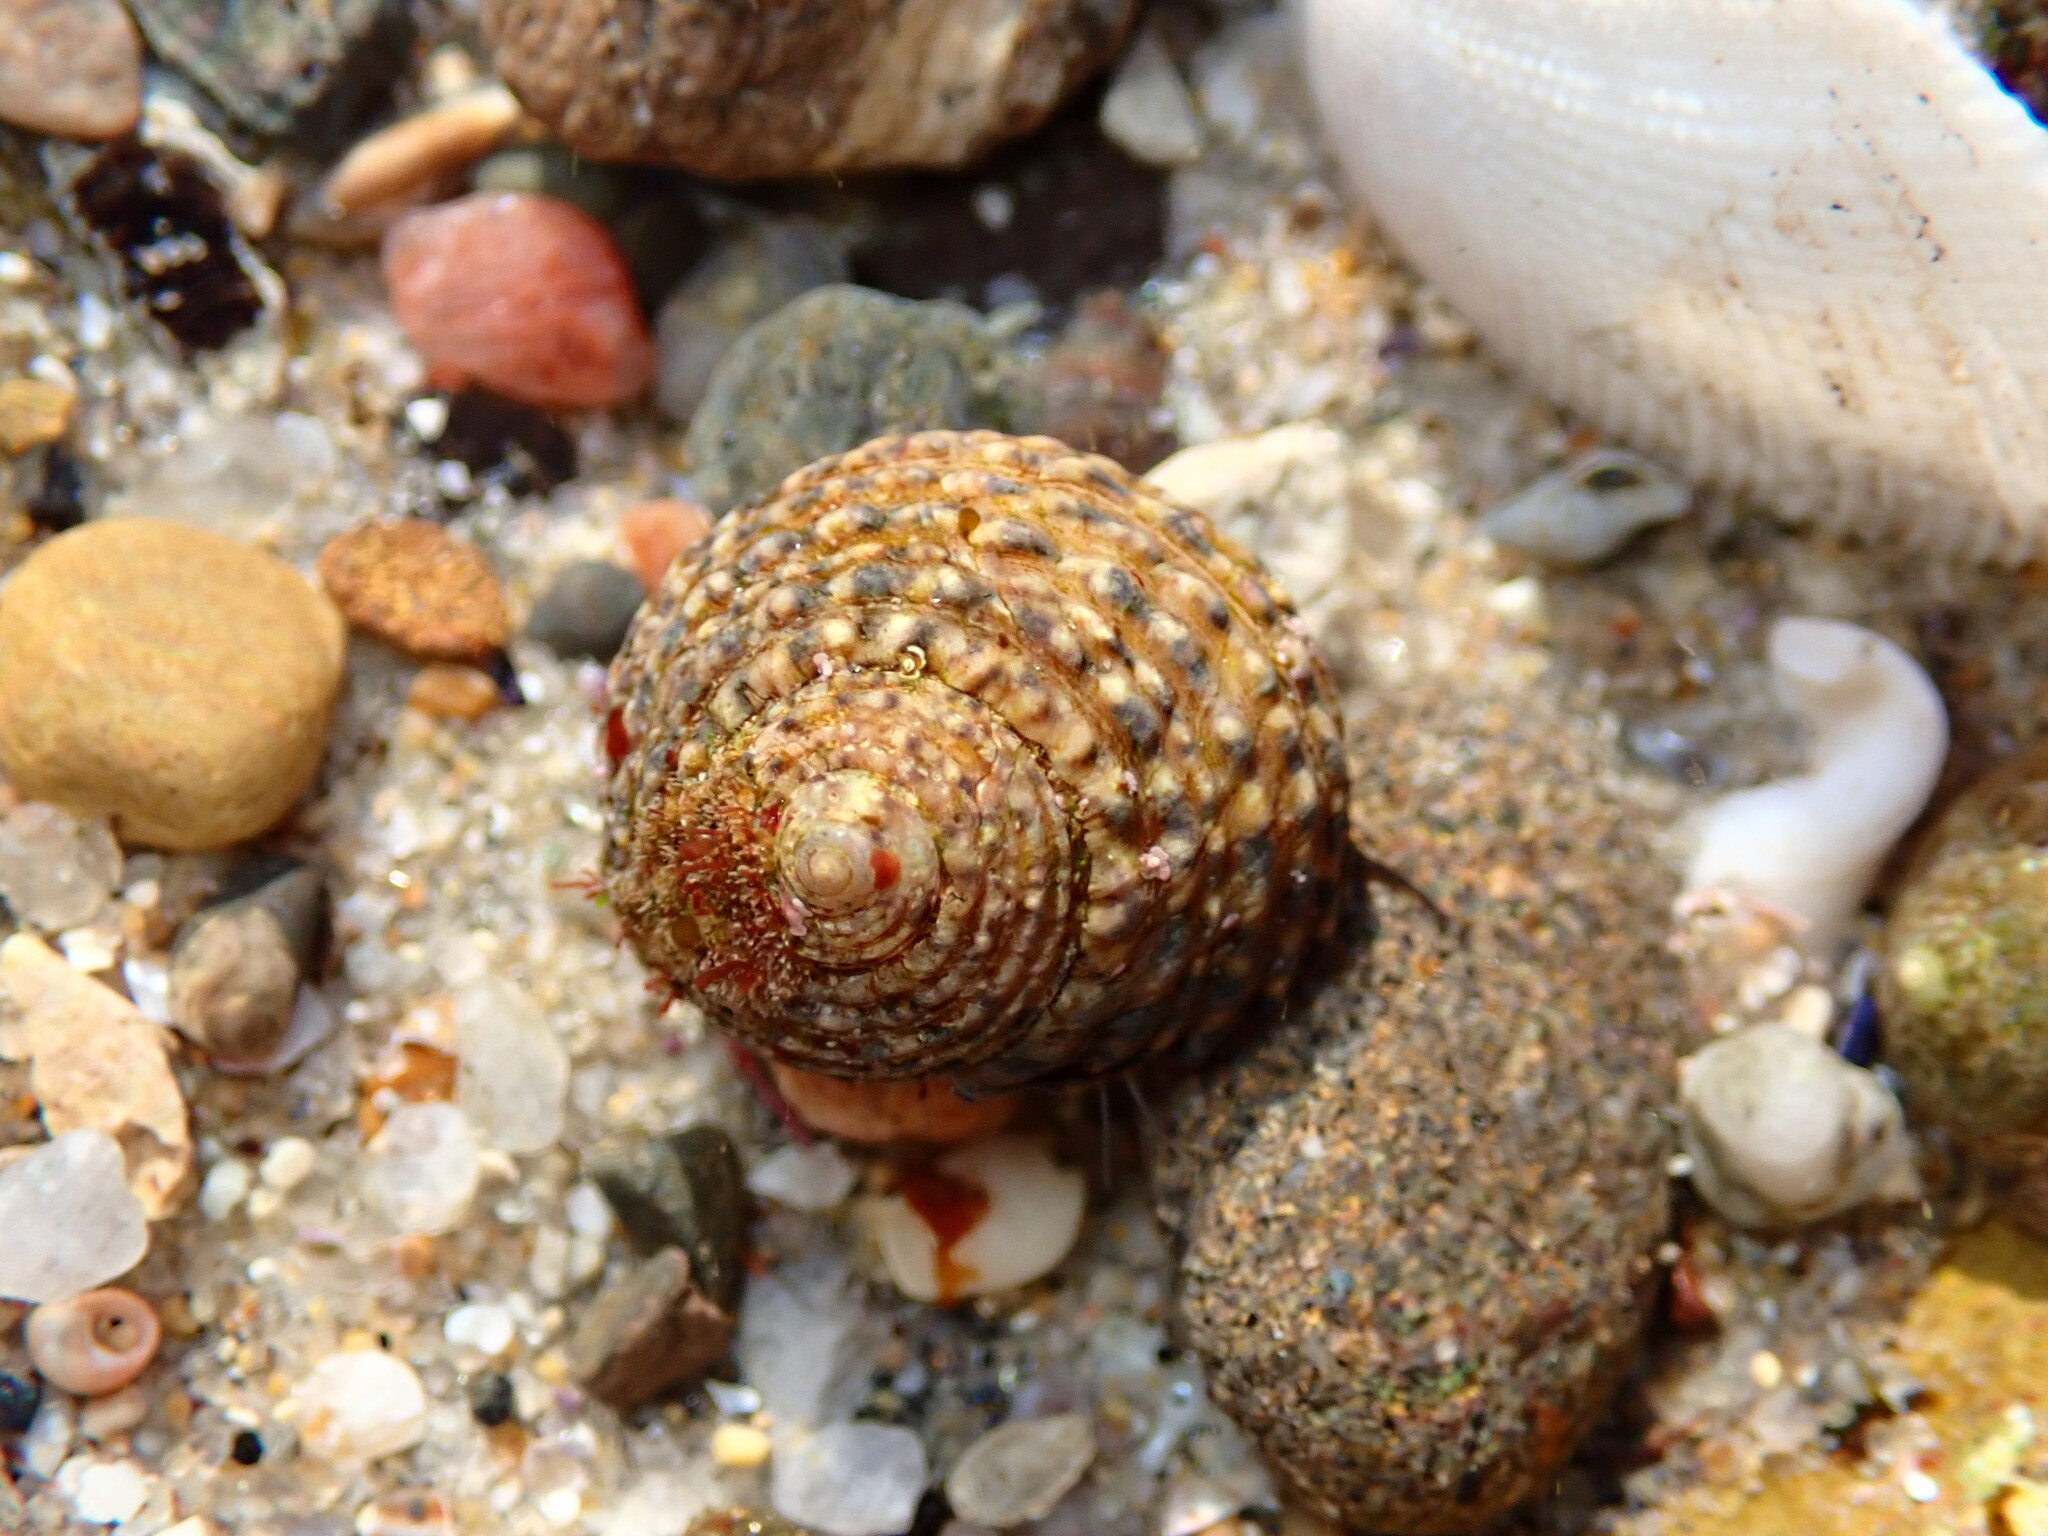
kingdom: Animalia
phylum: Mollusca
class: Gastropoda
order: Trochida
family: Tegulidae
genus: Tegula
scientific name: Tegula eiseni
